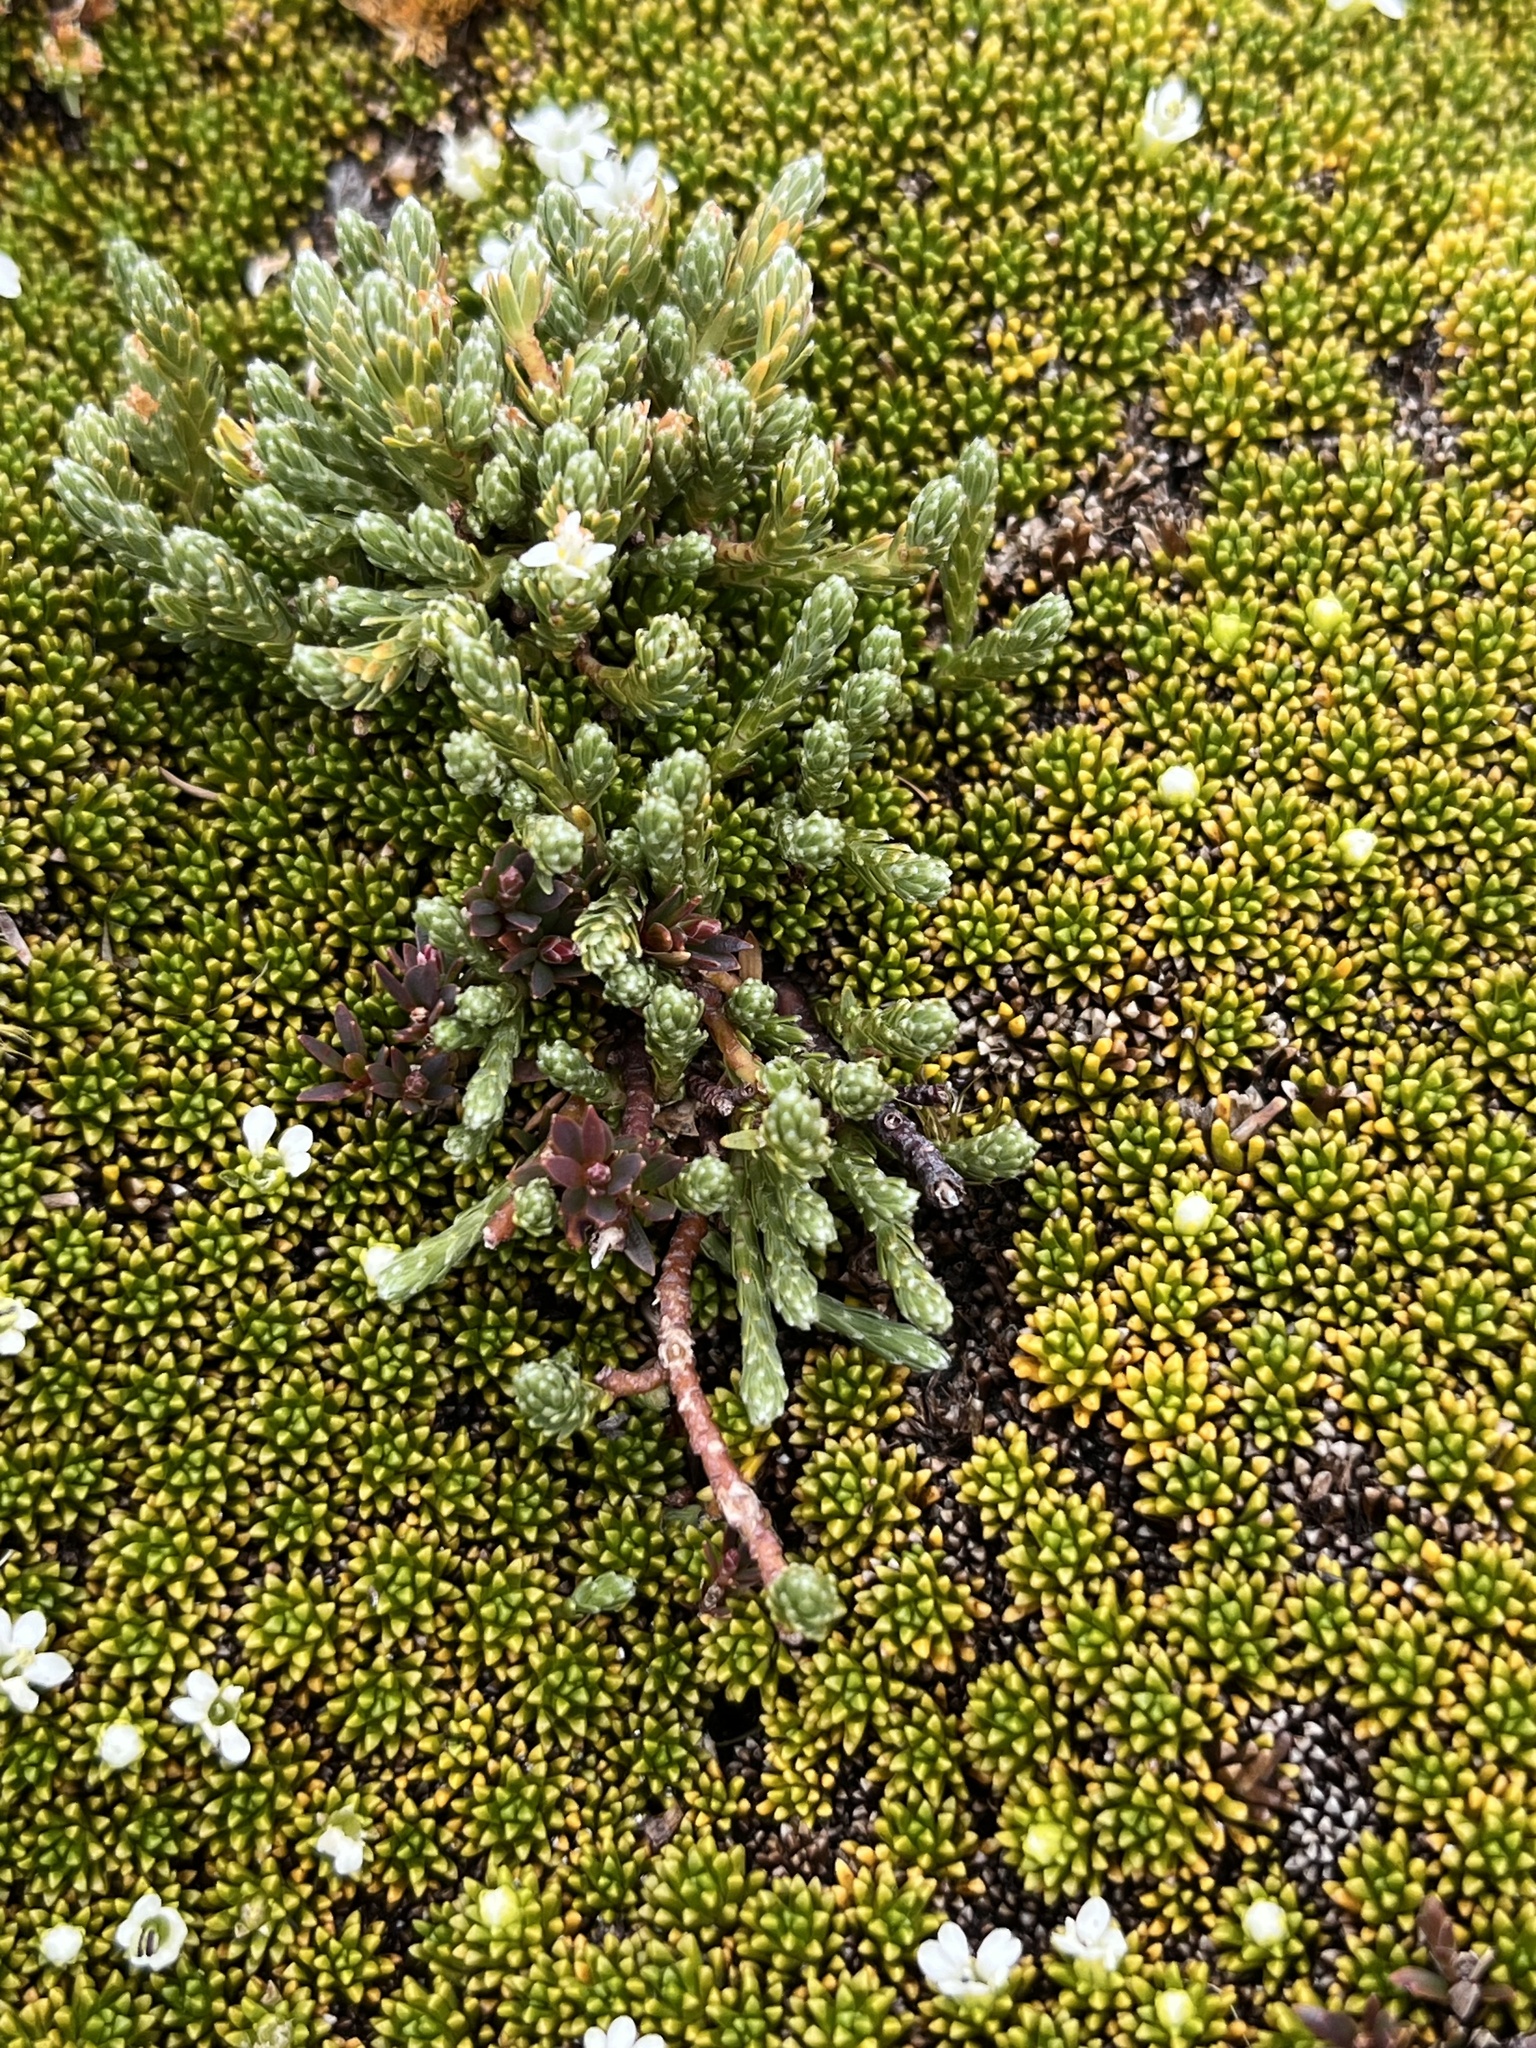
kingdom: Plantae
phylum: Tracheophyta
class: Magnoliopsida
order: Malvales
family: Thymelaeaceae
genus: Kelleria
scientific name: Kelleria dieffenbachii
